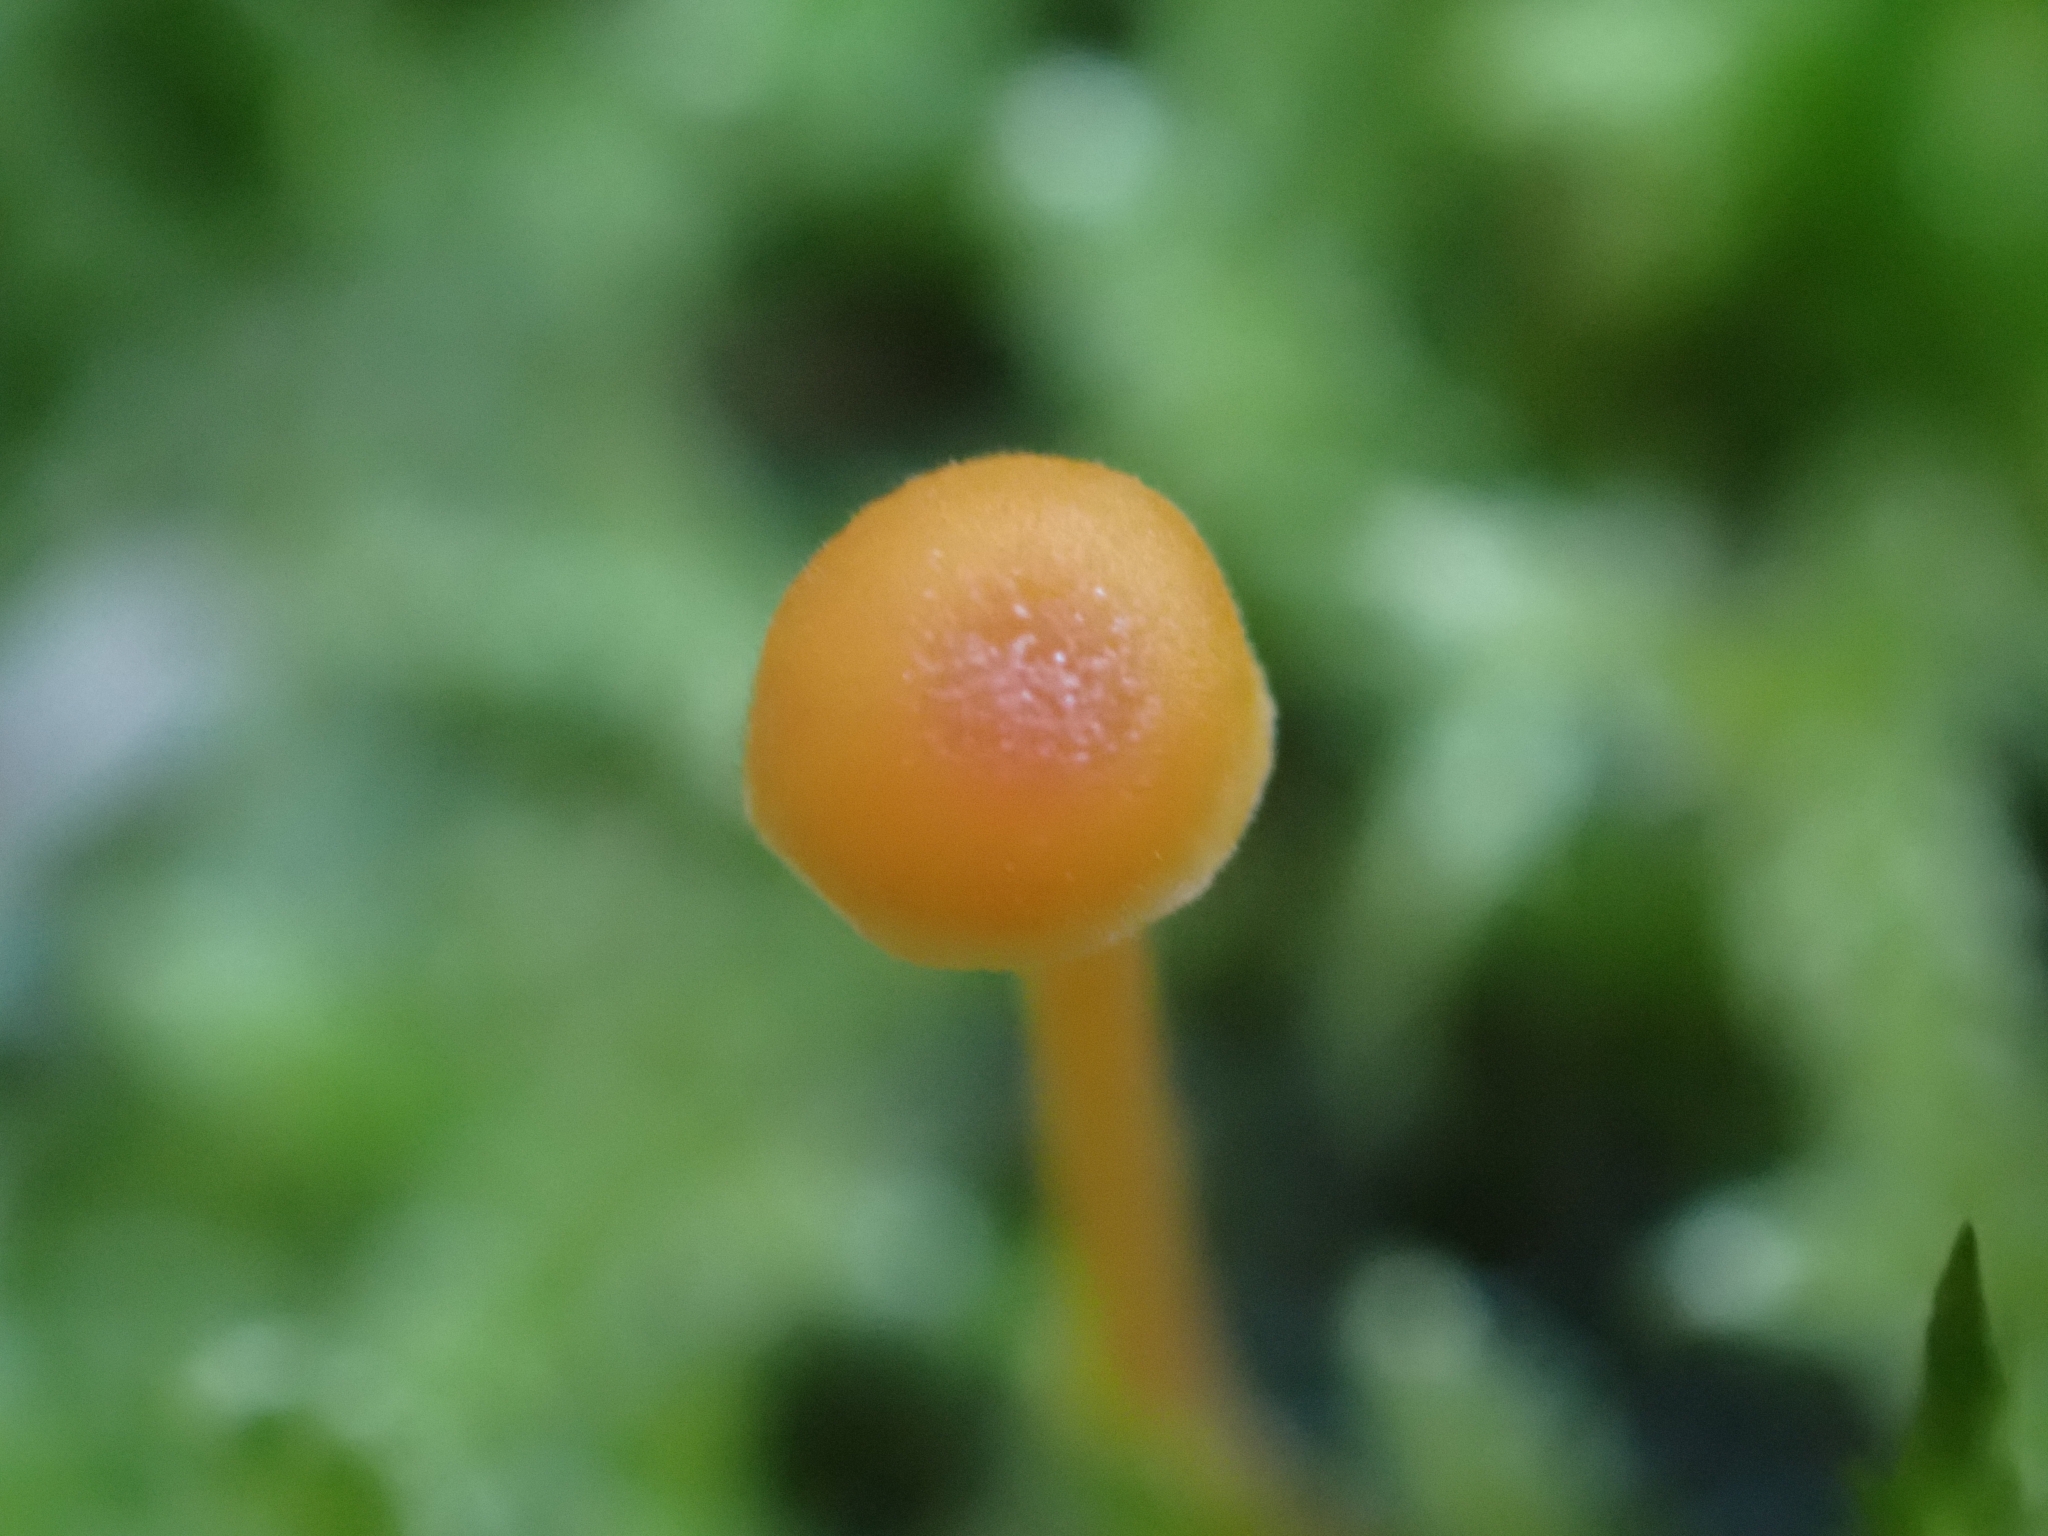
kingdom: Fungi
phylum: Basidiomycota
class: Agaricomycetes
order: Hymenochaetales
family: Rickenellaceae
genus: Rickenella
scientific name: Rickenella fibula
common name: Orange mosscap
